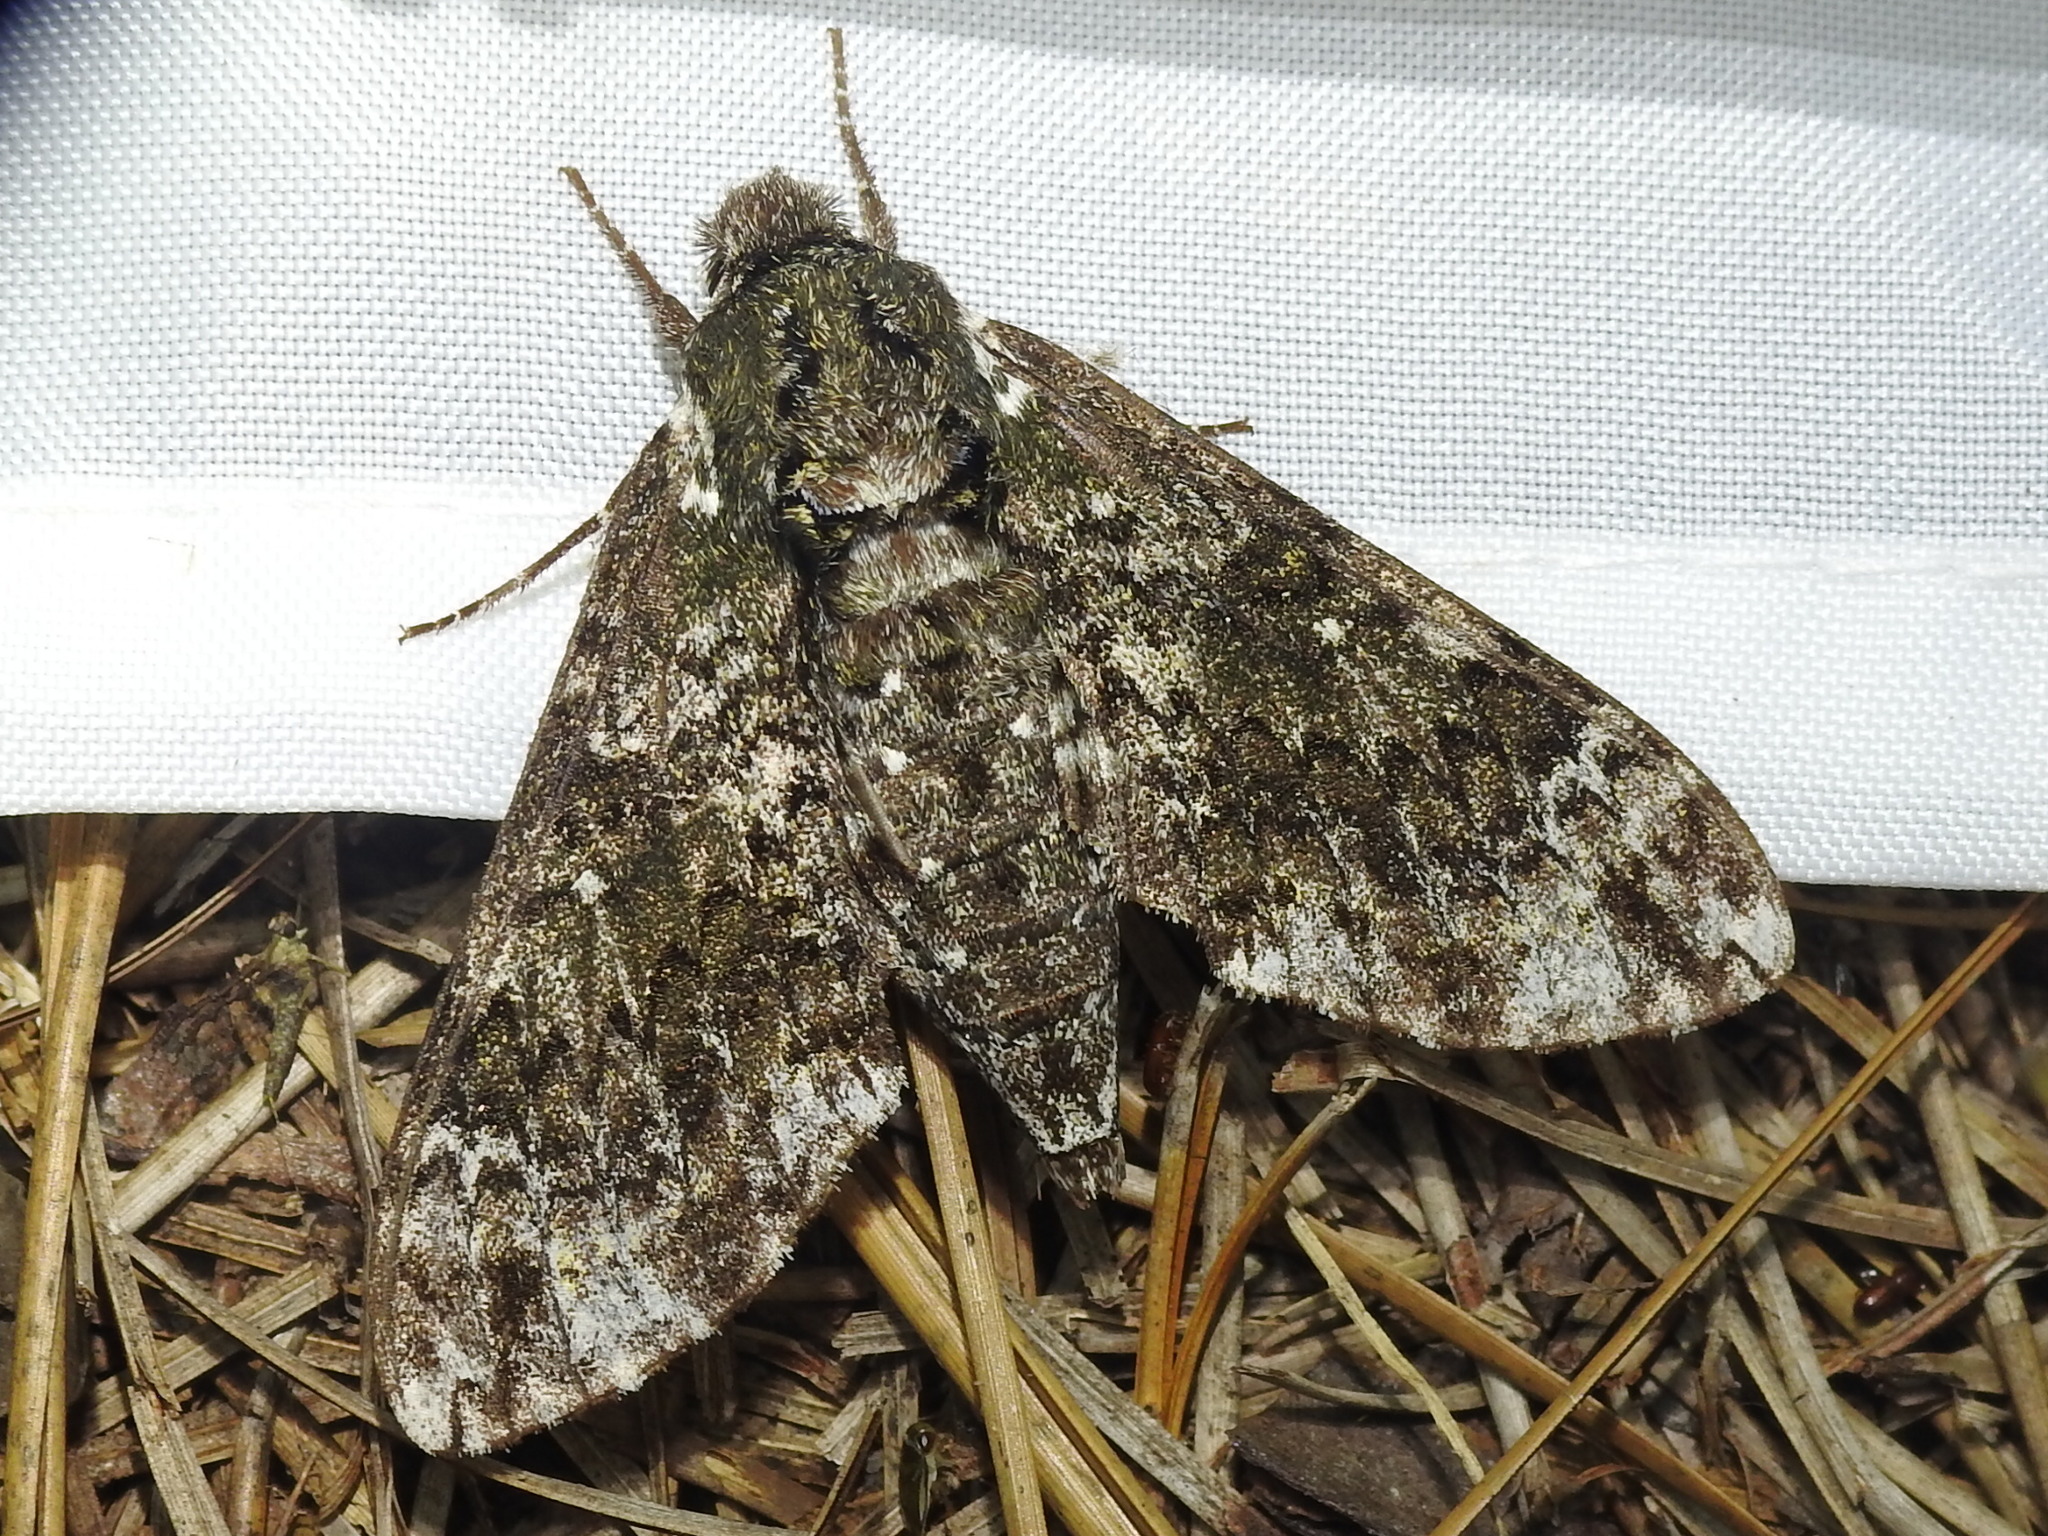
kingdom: Animalia
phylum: Arthropoda
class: Insecta
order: Lepidoptera
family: Sphingidae
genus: Dolba
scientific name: Dolba hyloeus
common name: Pawpaw sphinx
